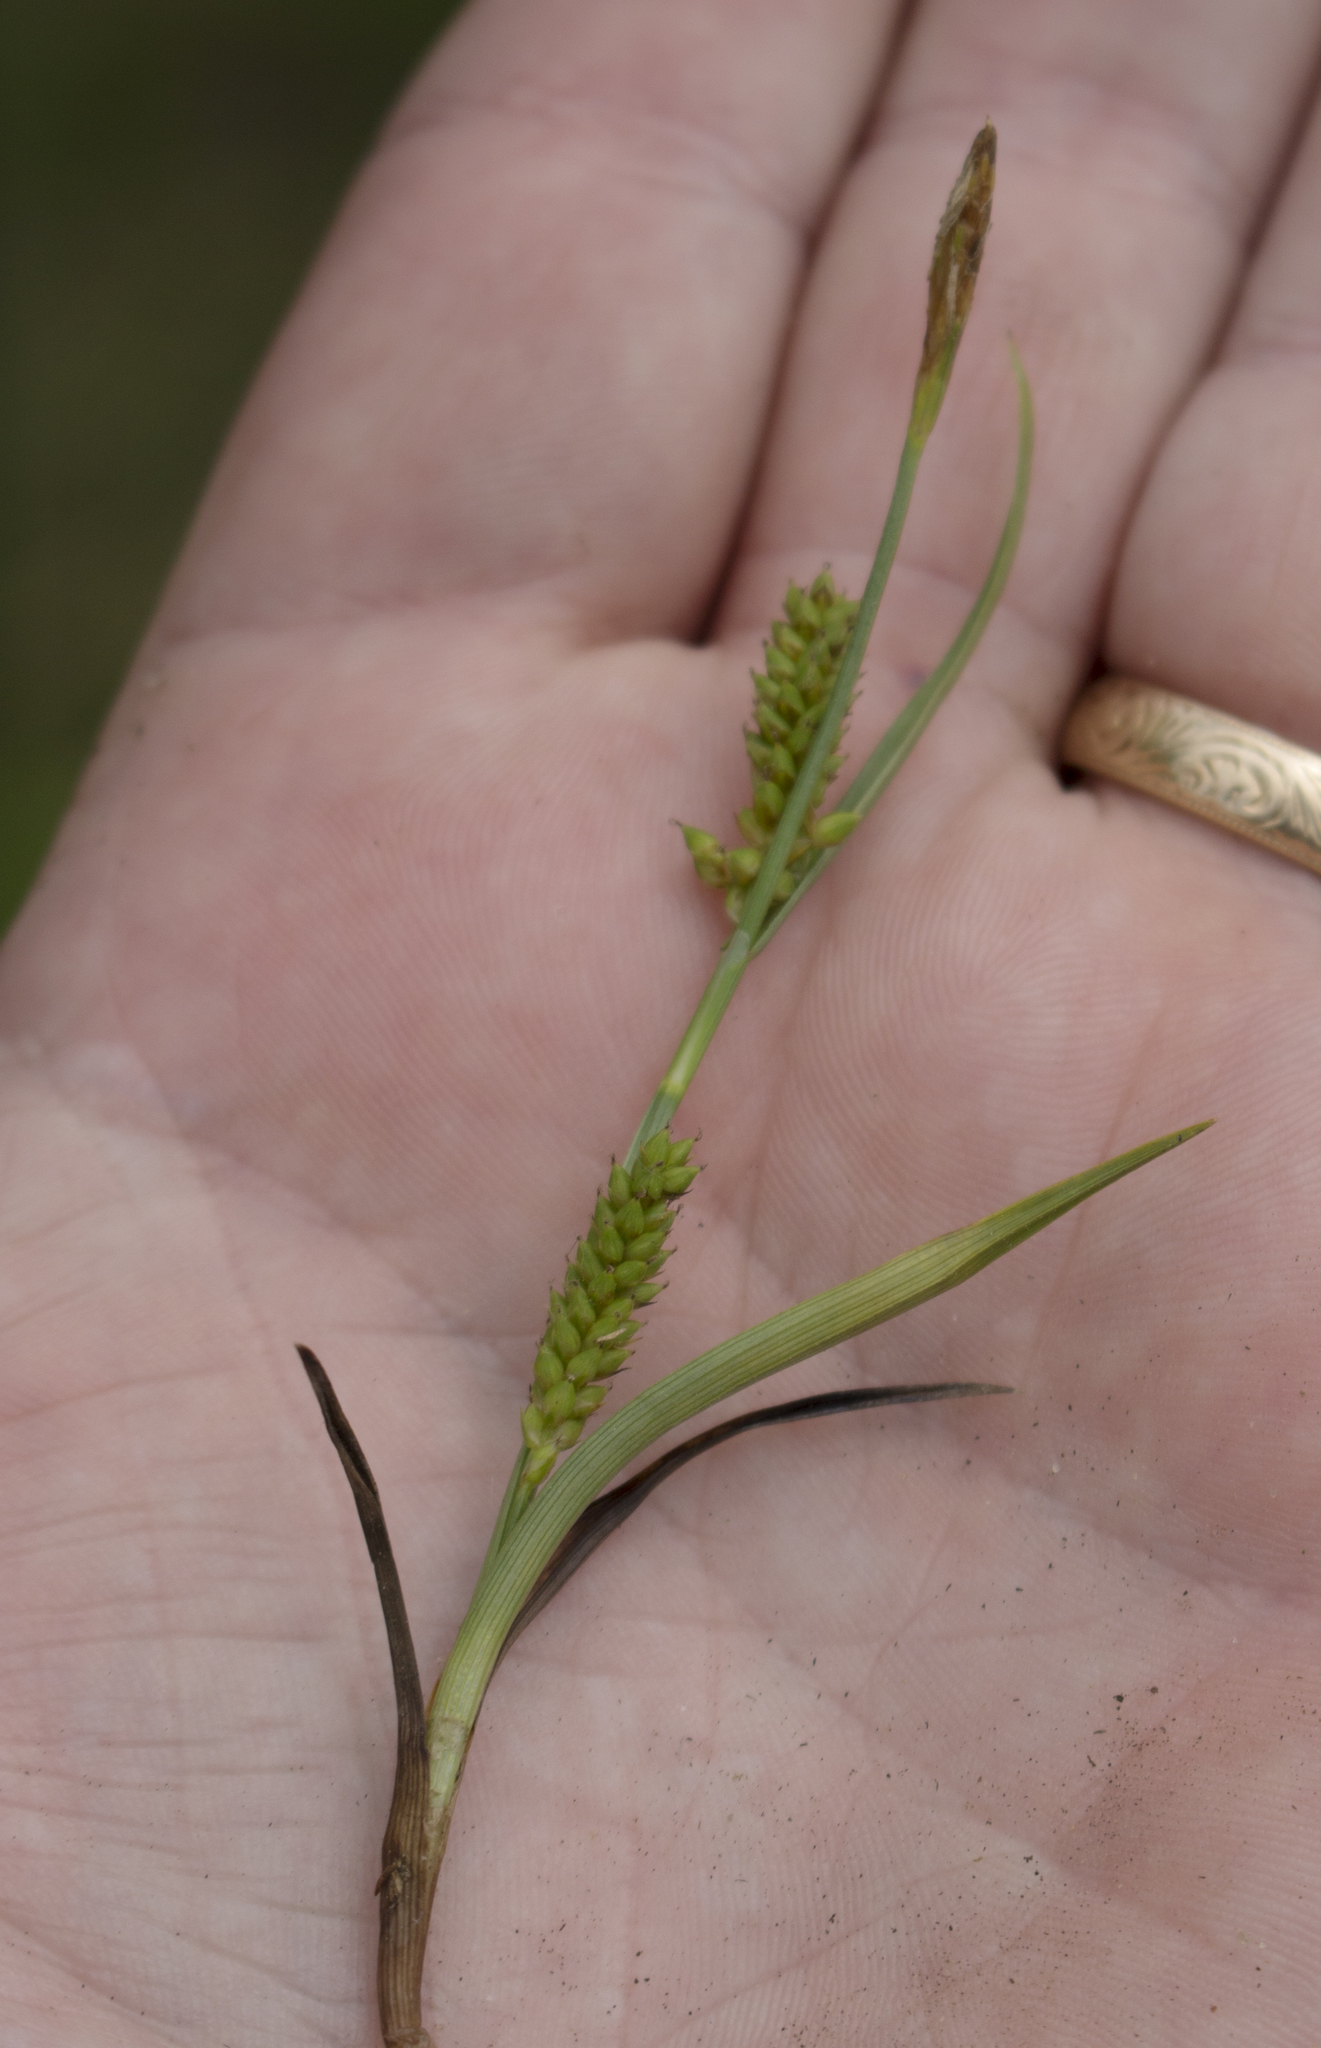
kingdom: Plantae
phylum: Tracheophyta
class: Liliopsida
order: Poales
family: Cyperaceae
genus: Carex
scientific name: Carex crawei
